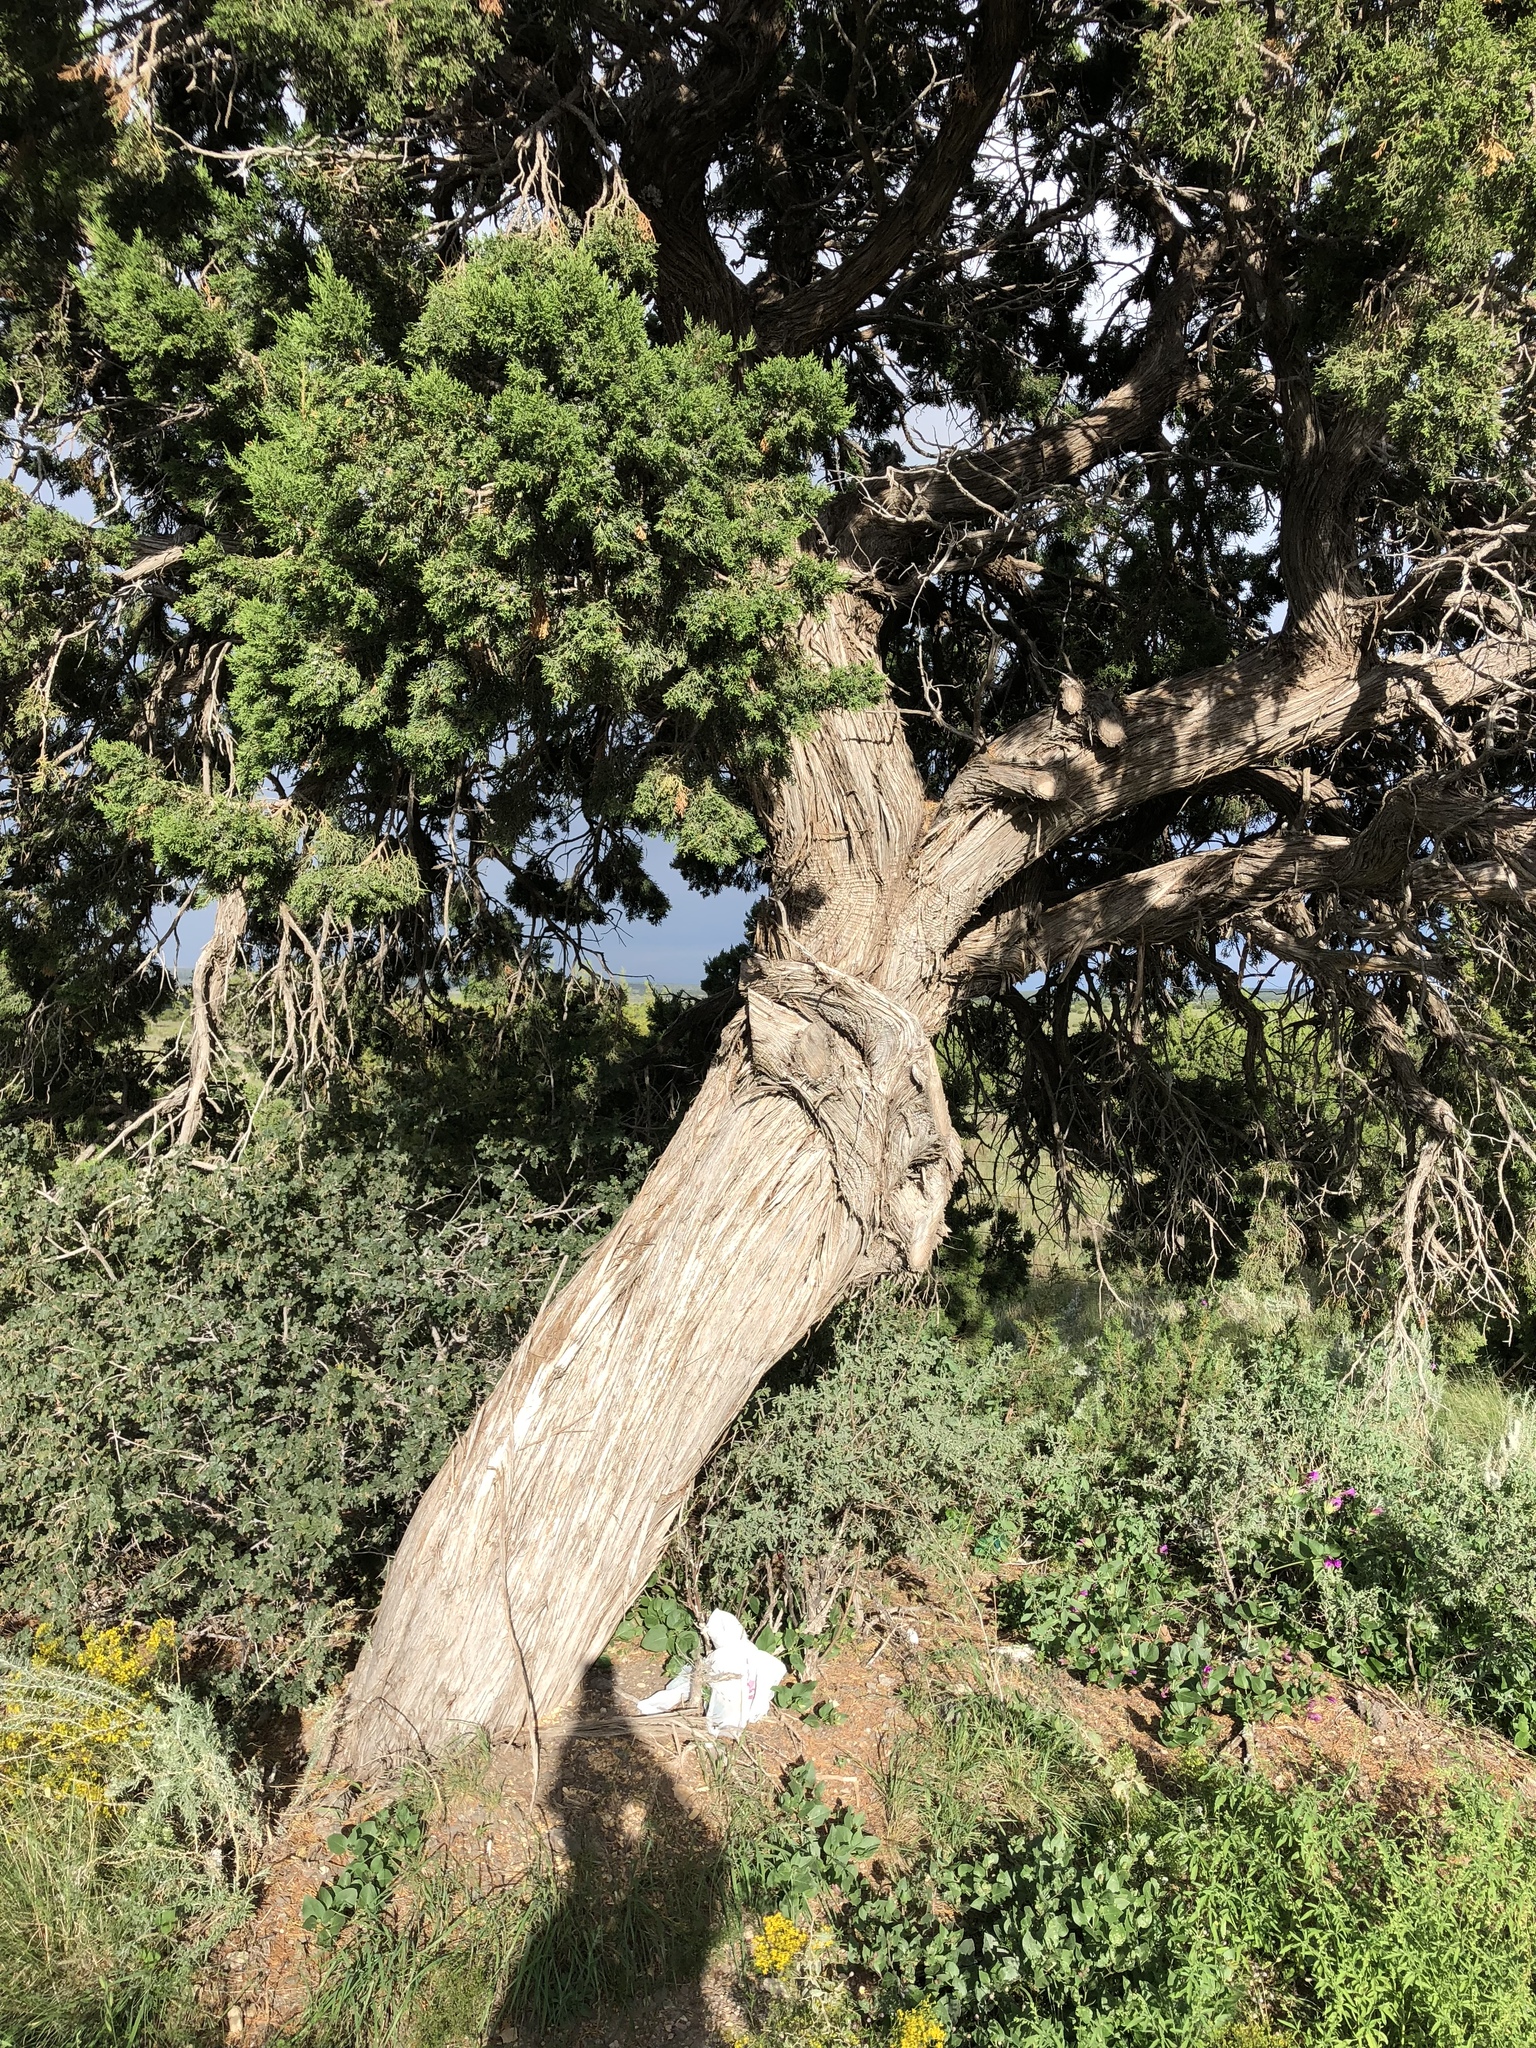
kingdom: Plantae
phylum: Tracheophyta
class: Pinopsida
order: Pinales
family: Cupressaceae
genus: Juniperus
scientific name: Juniperus monosperma
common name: One-seed juniper
